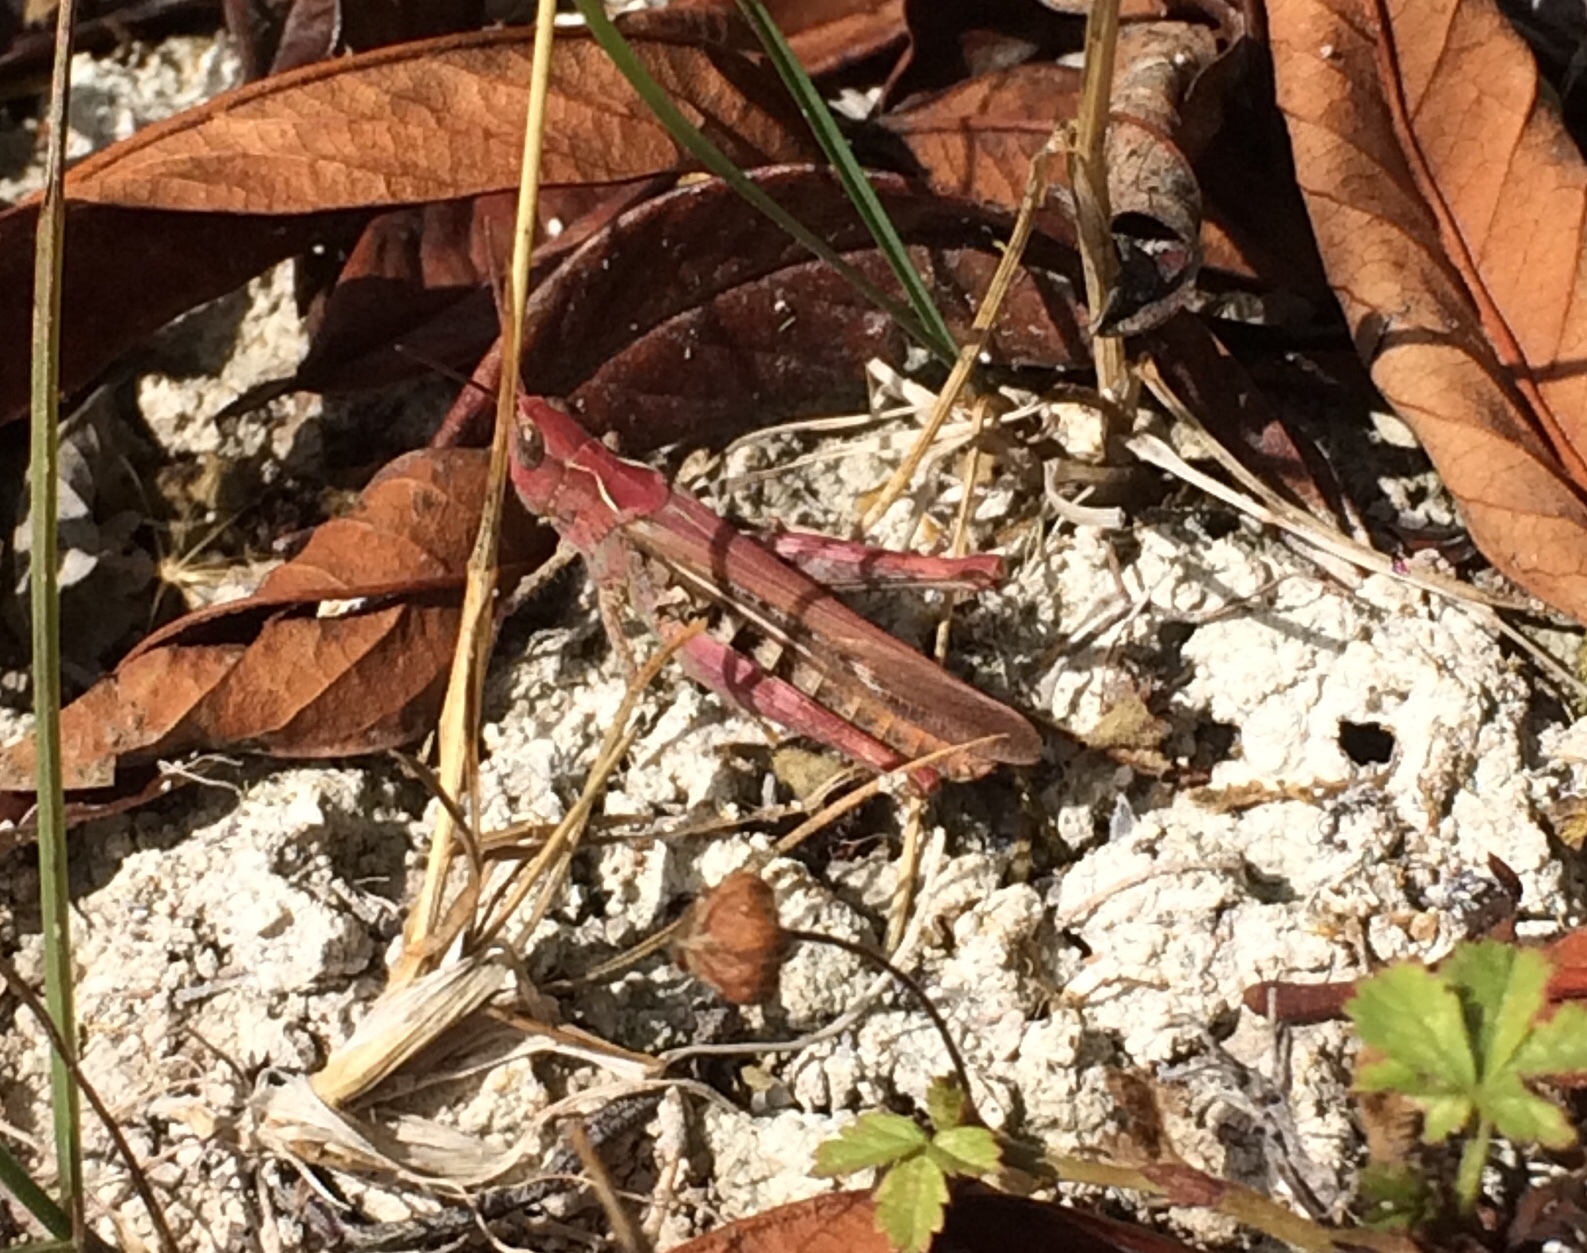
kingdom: Animalia
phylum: Arthropoda
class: Insecta
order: Orthoptera
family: Acrididae
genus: Chorthippus
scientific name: Chorthippus brunneus
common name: Field grasshopper
